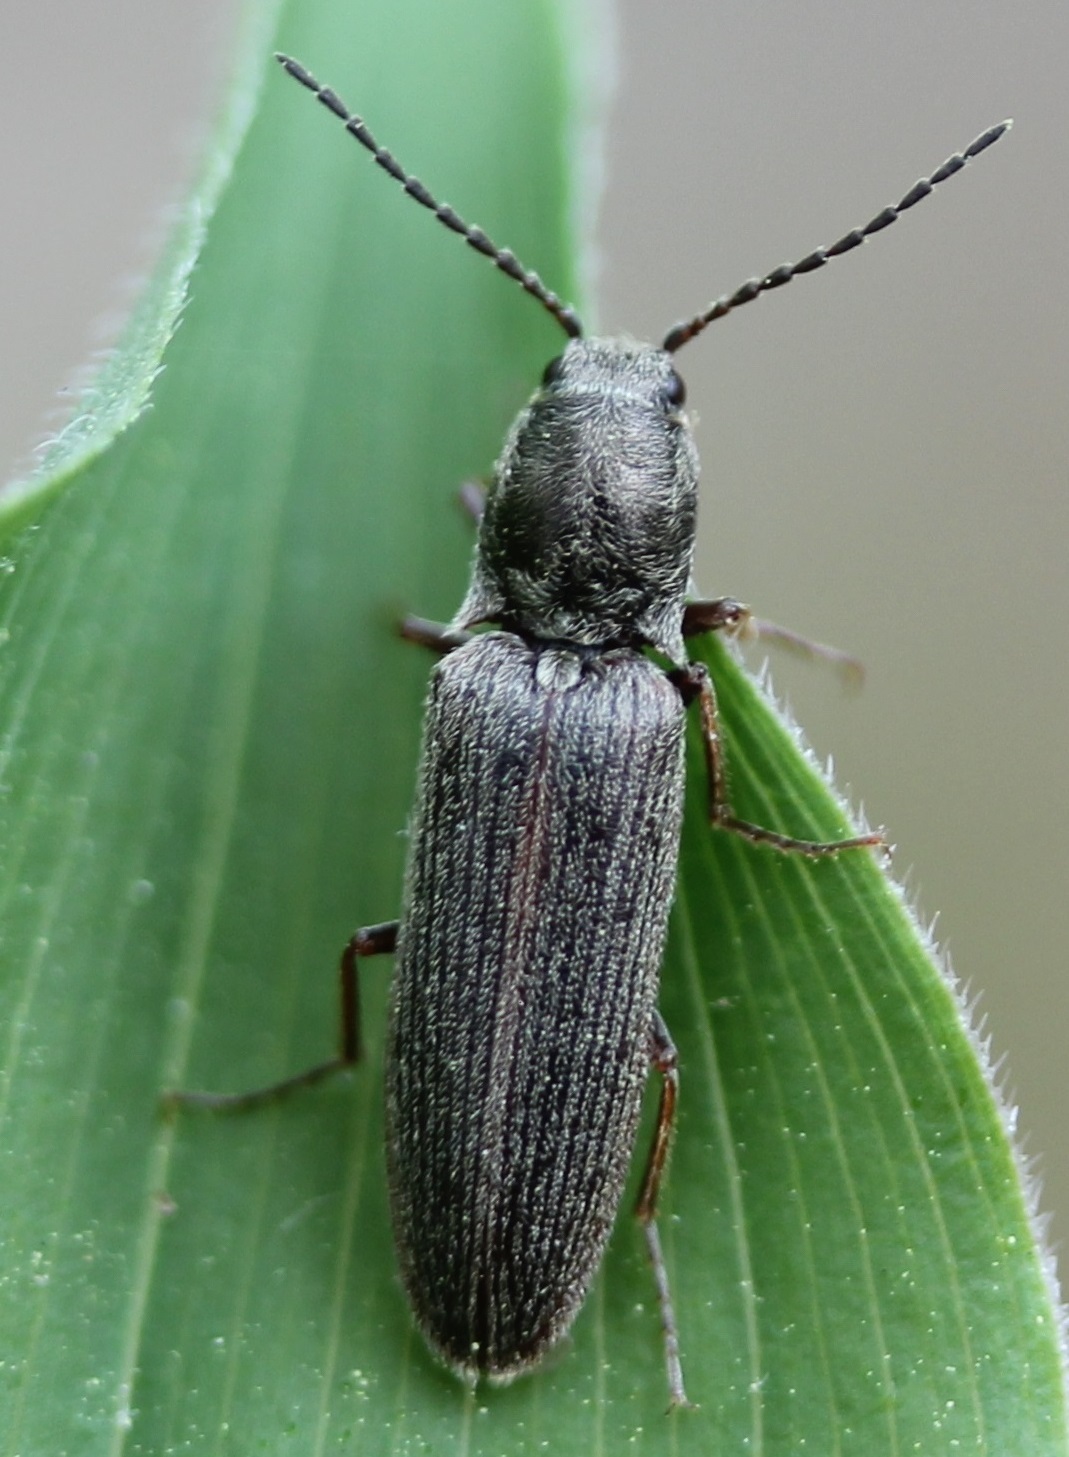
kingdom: Animalia
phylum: Arthropoda
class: Insecta
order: Coleoptera
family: Elateridae
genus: Sylvanelater
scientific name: Sylvanelater cylindriformis
